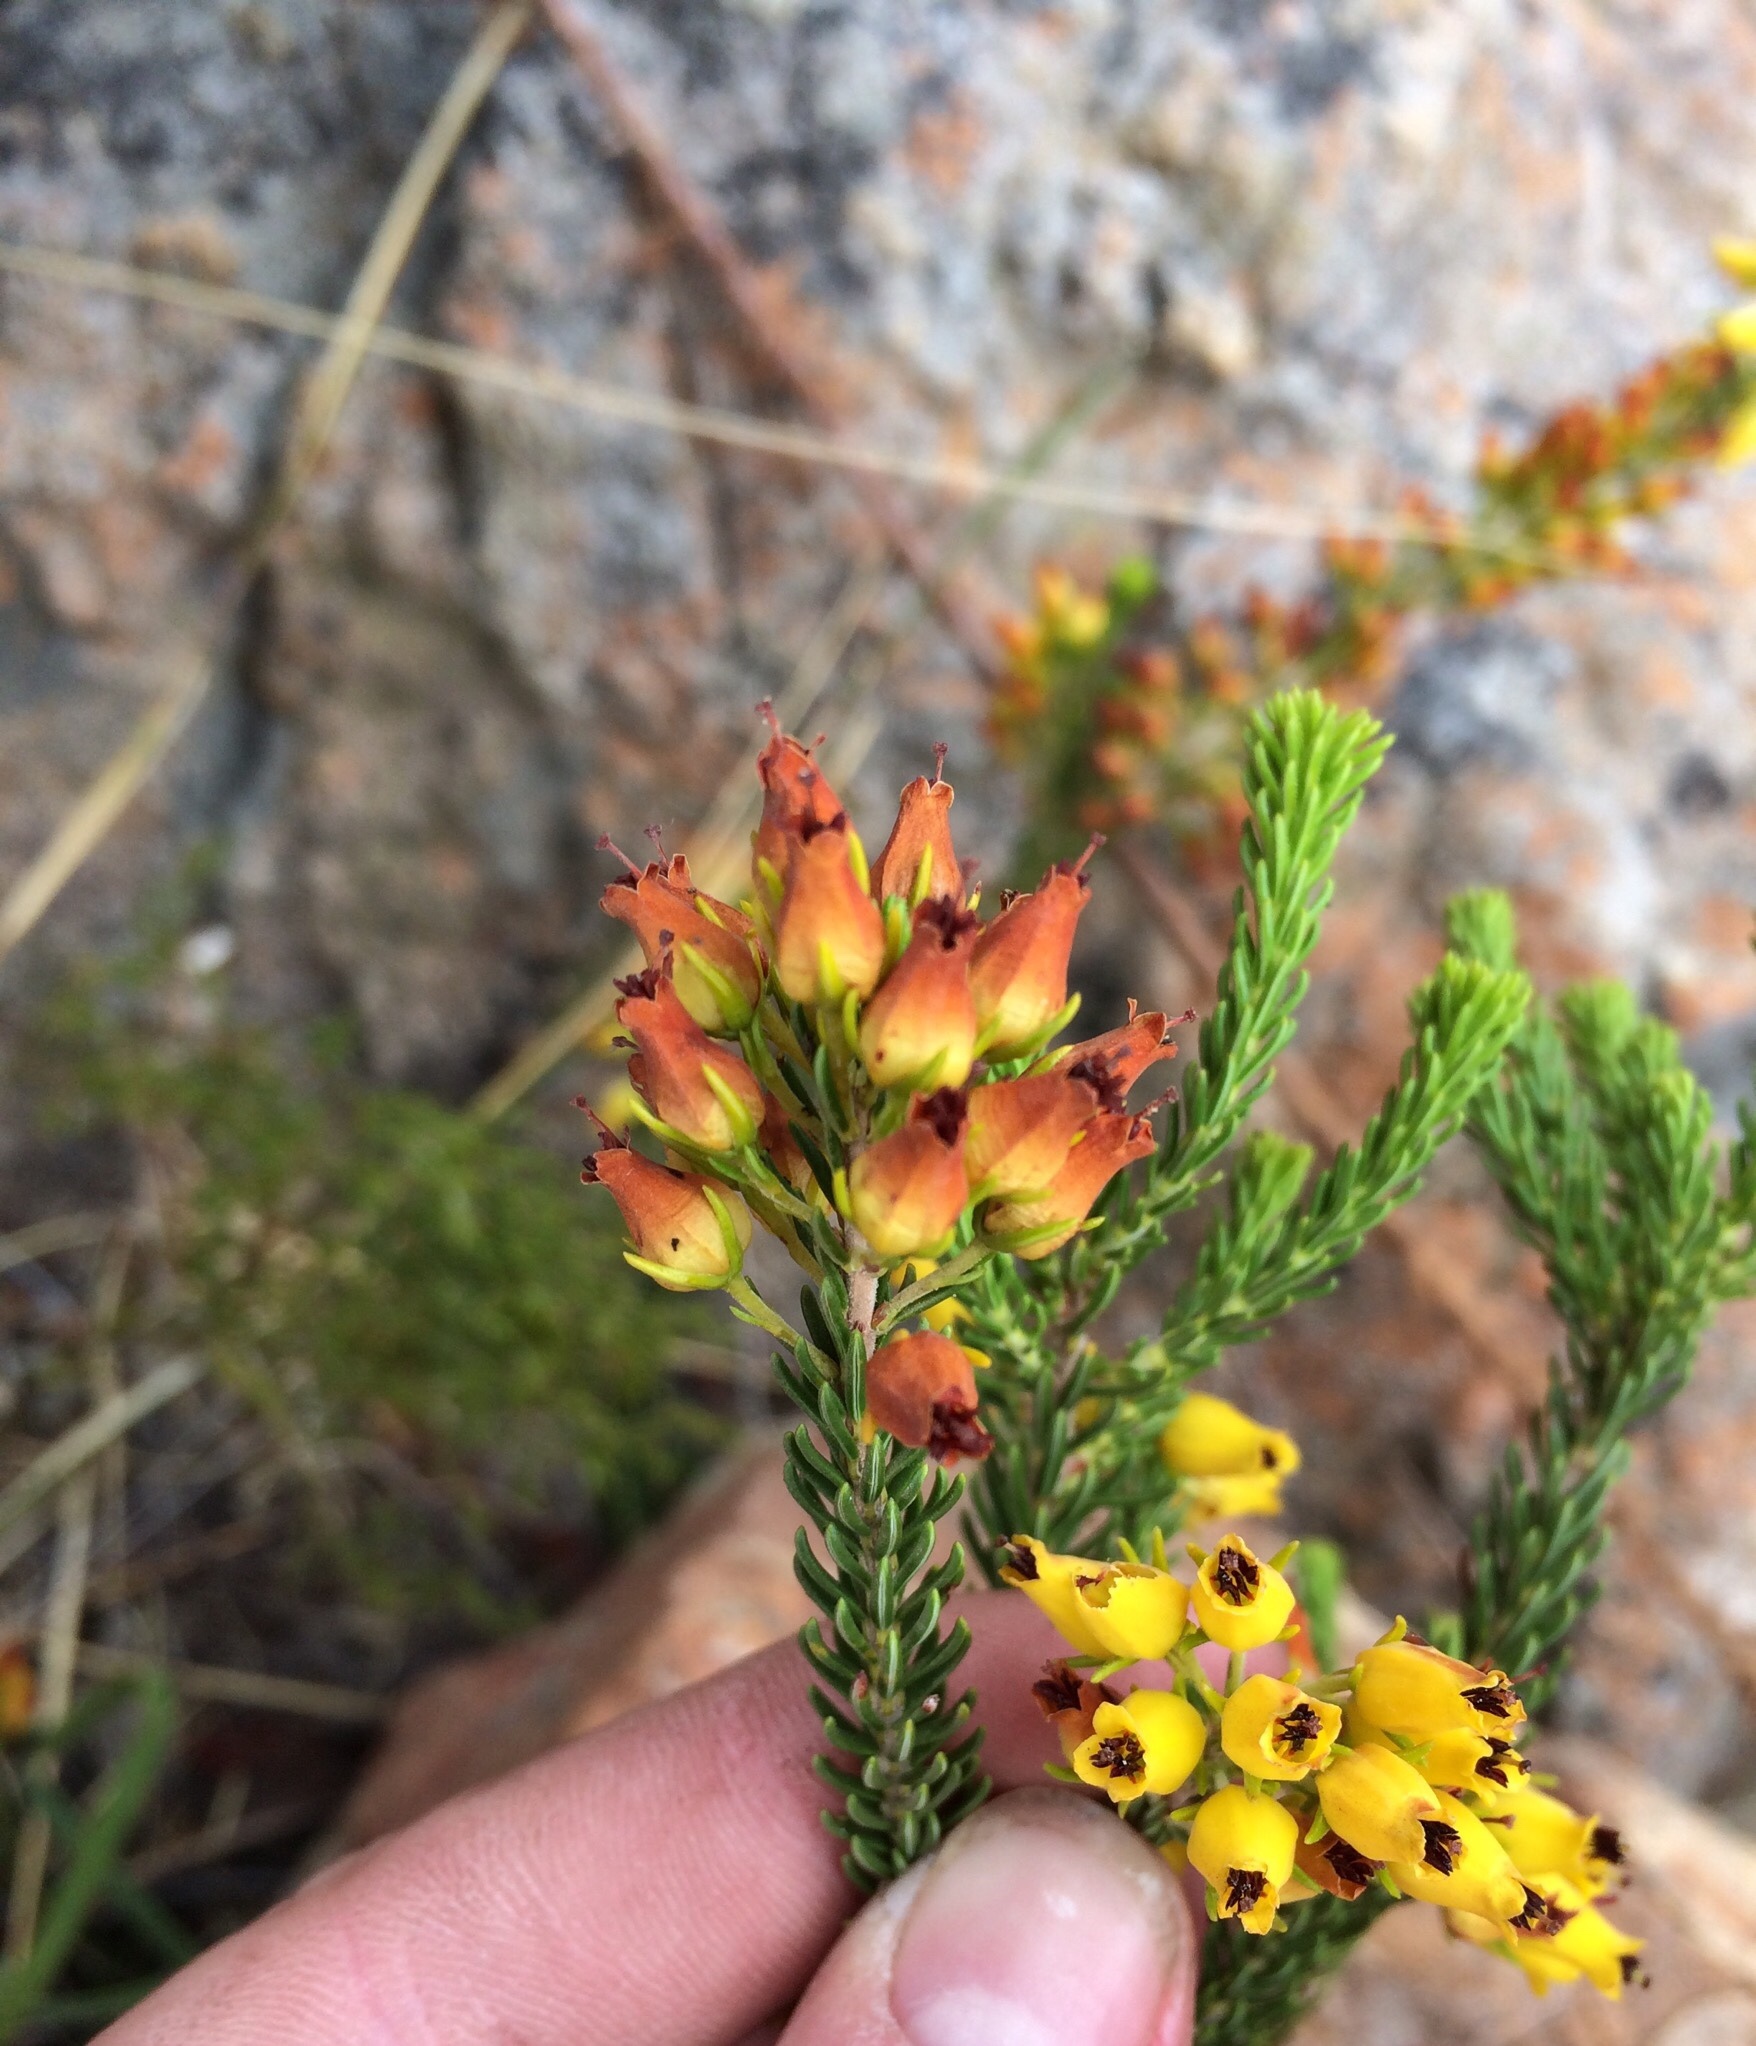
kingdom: Plantae
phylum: Tracheophyta
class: Magnoliopsida
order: Ericales
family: Ericaceae
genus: Erica
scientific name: Erica parilis
